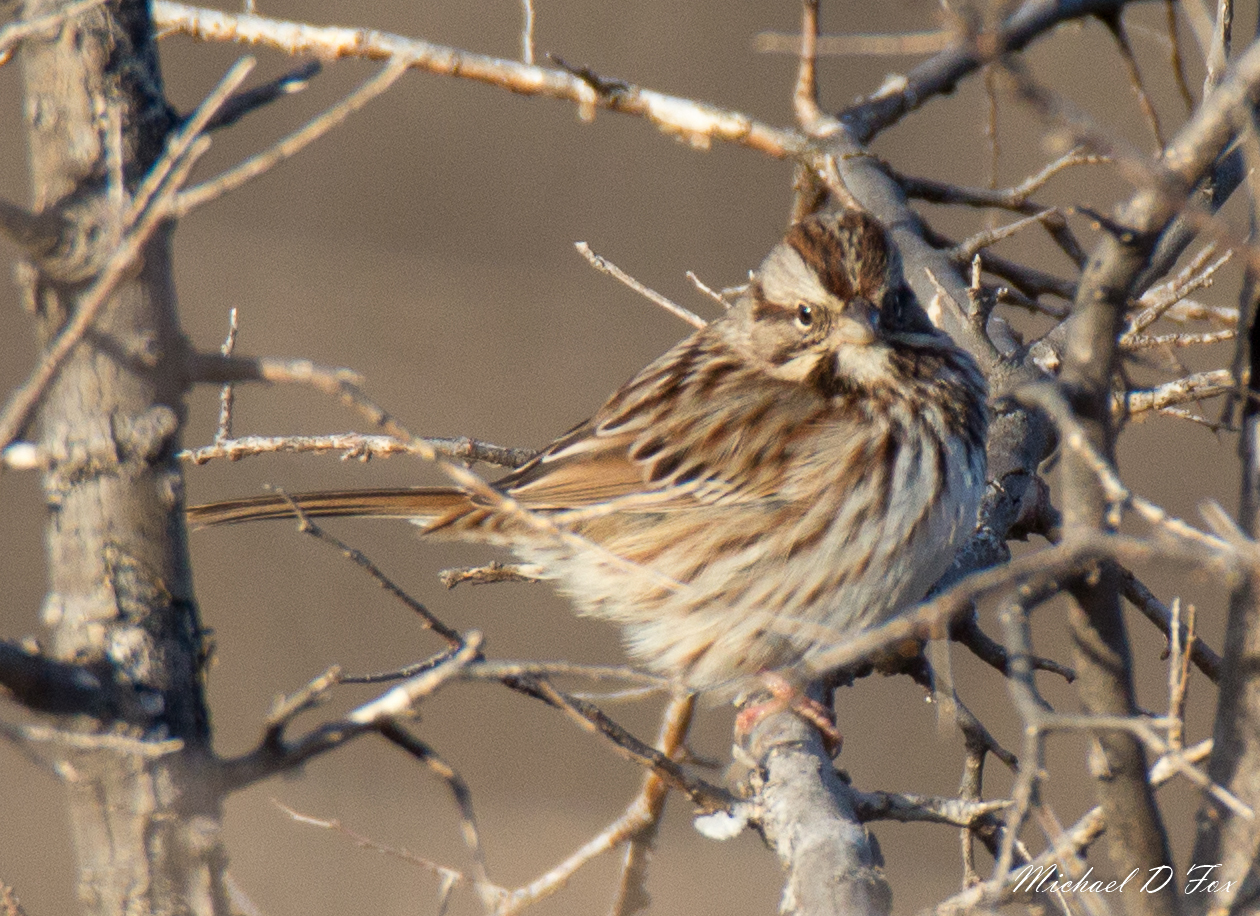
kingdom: Animalia
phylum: Chordata
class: Aves
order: Passeriformes
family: Passerellidae
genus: Melospiza
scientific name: Melospiza melodia
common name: Song sparrow
